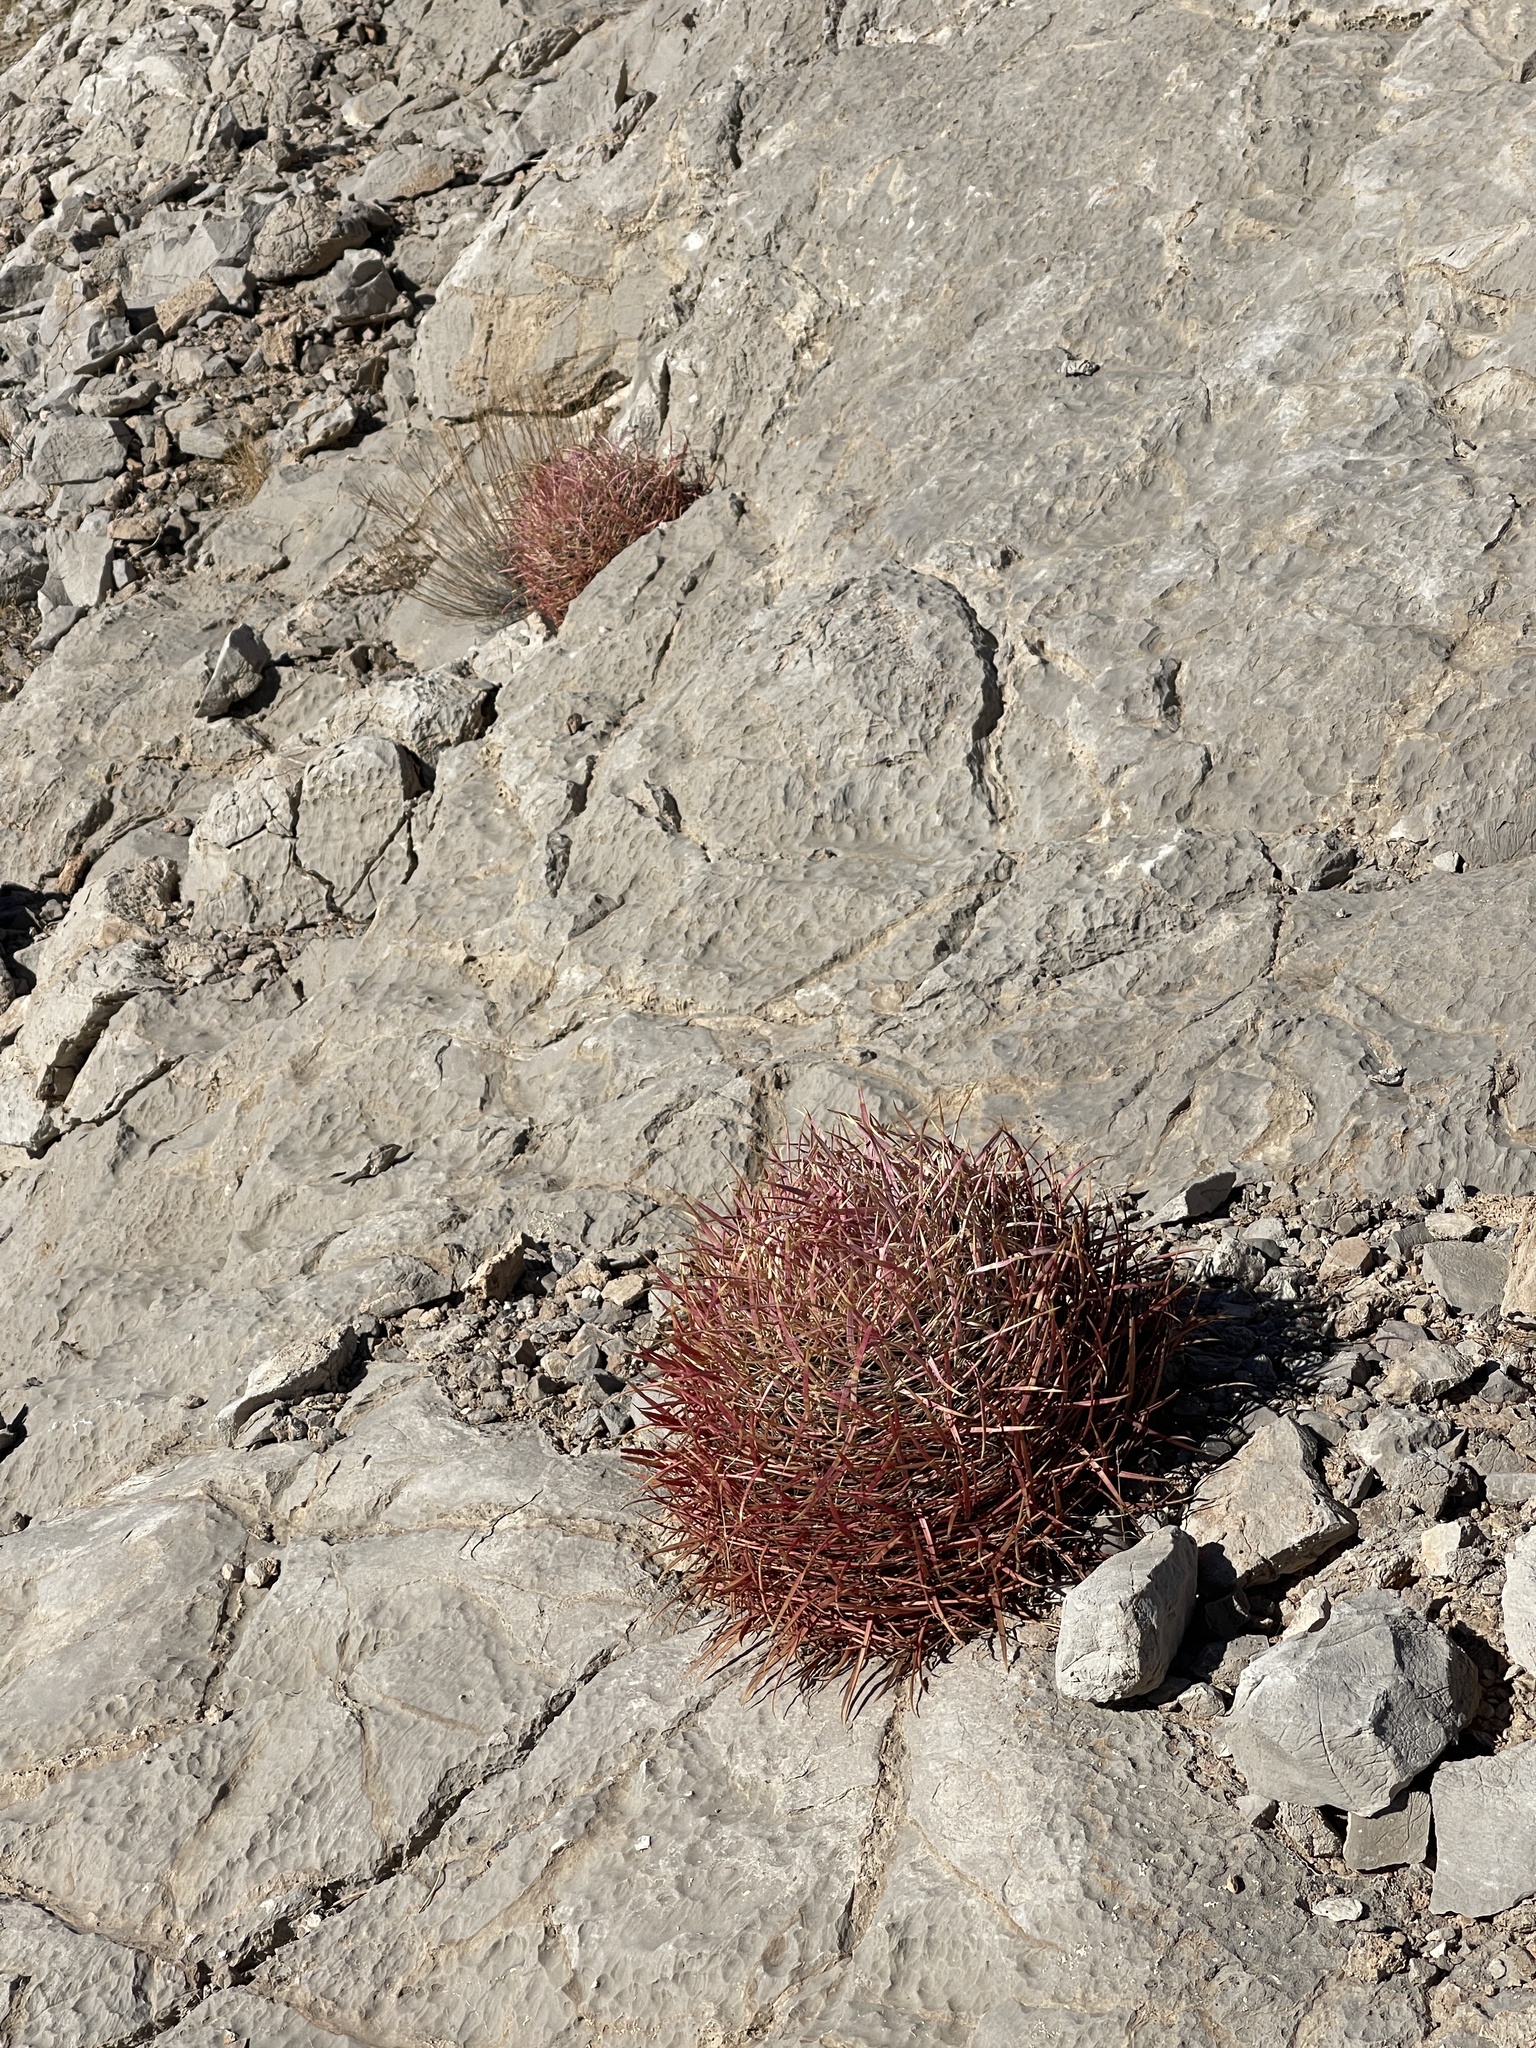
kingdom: Plantae
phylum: Tracheophyta
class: Magnoliopsida
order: Caryophyllales
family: Cactaceae
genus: Ferocactus
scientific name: Ferocactus cylindraceus
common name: California barrel cactus
